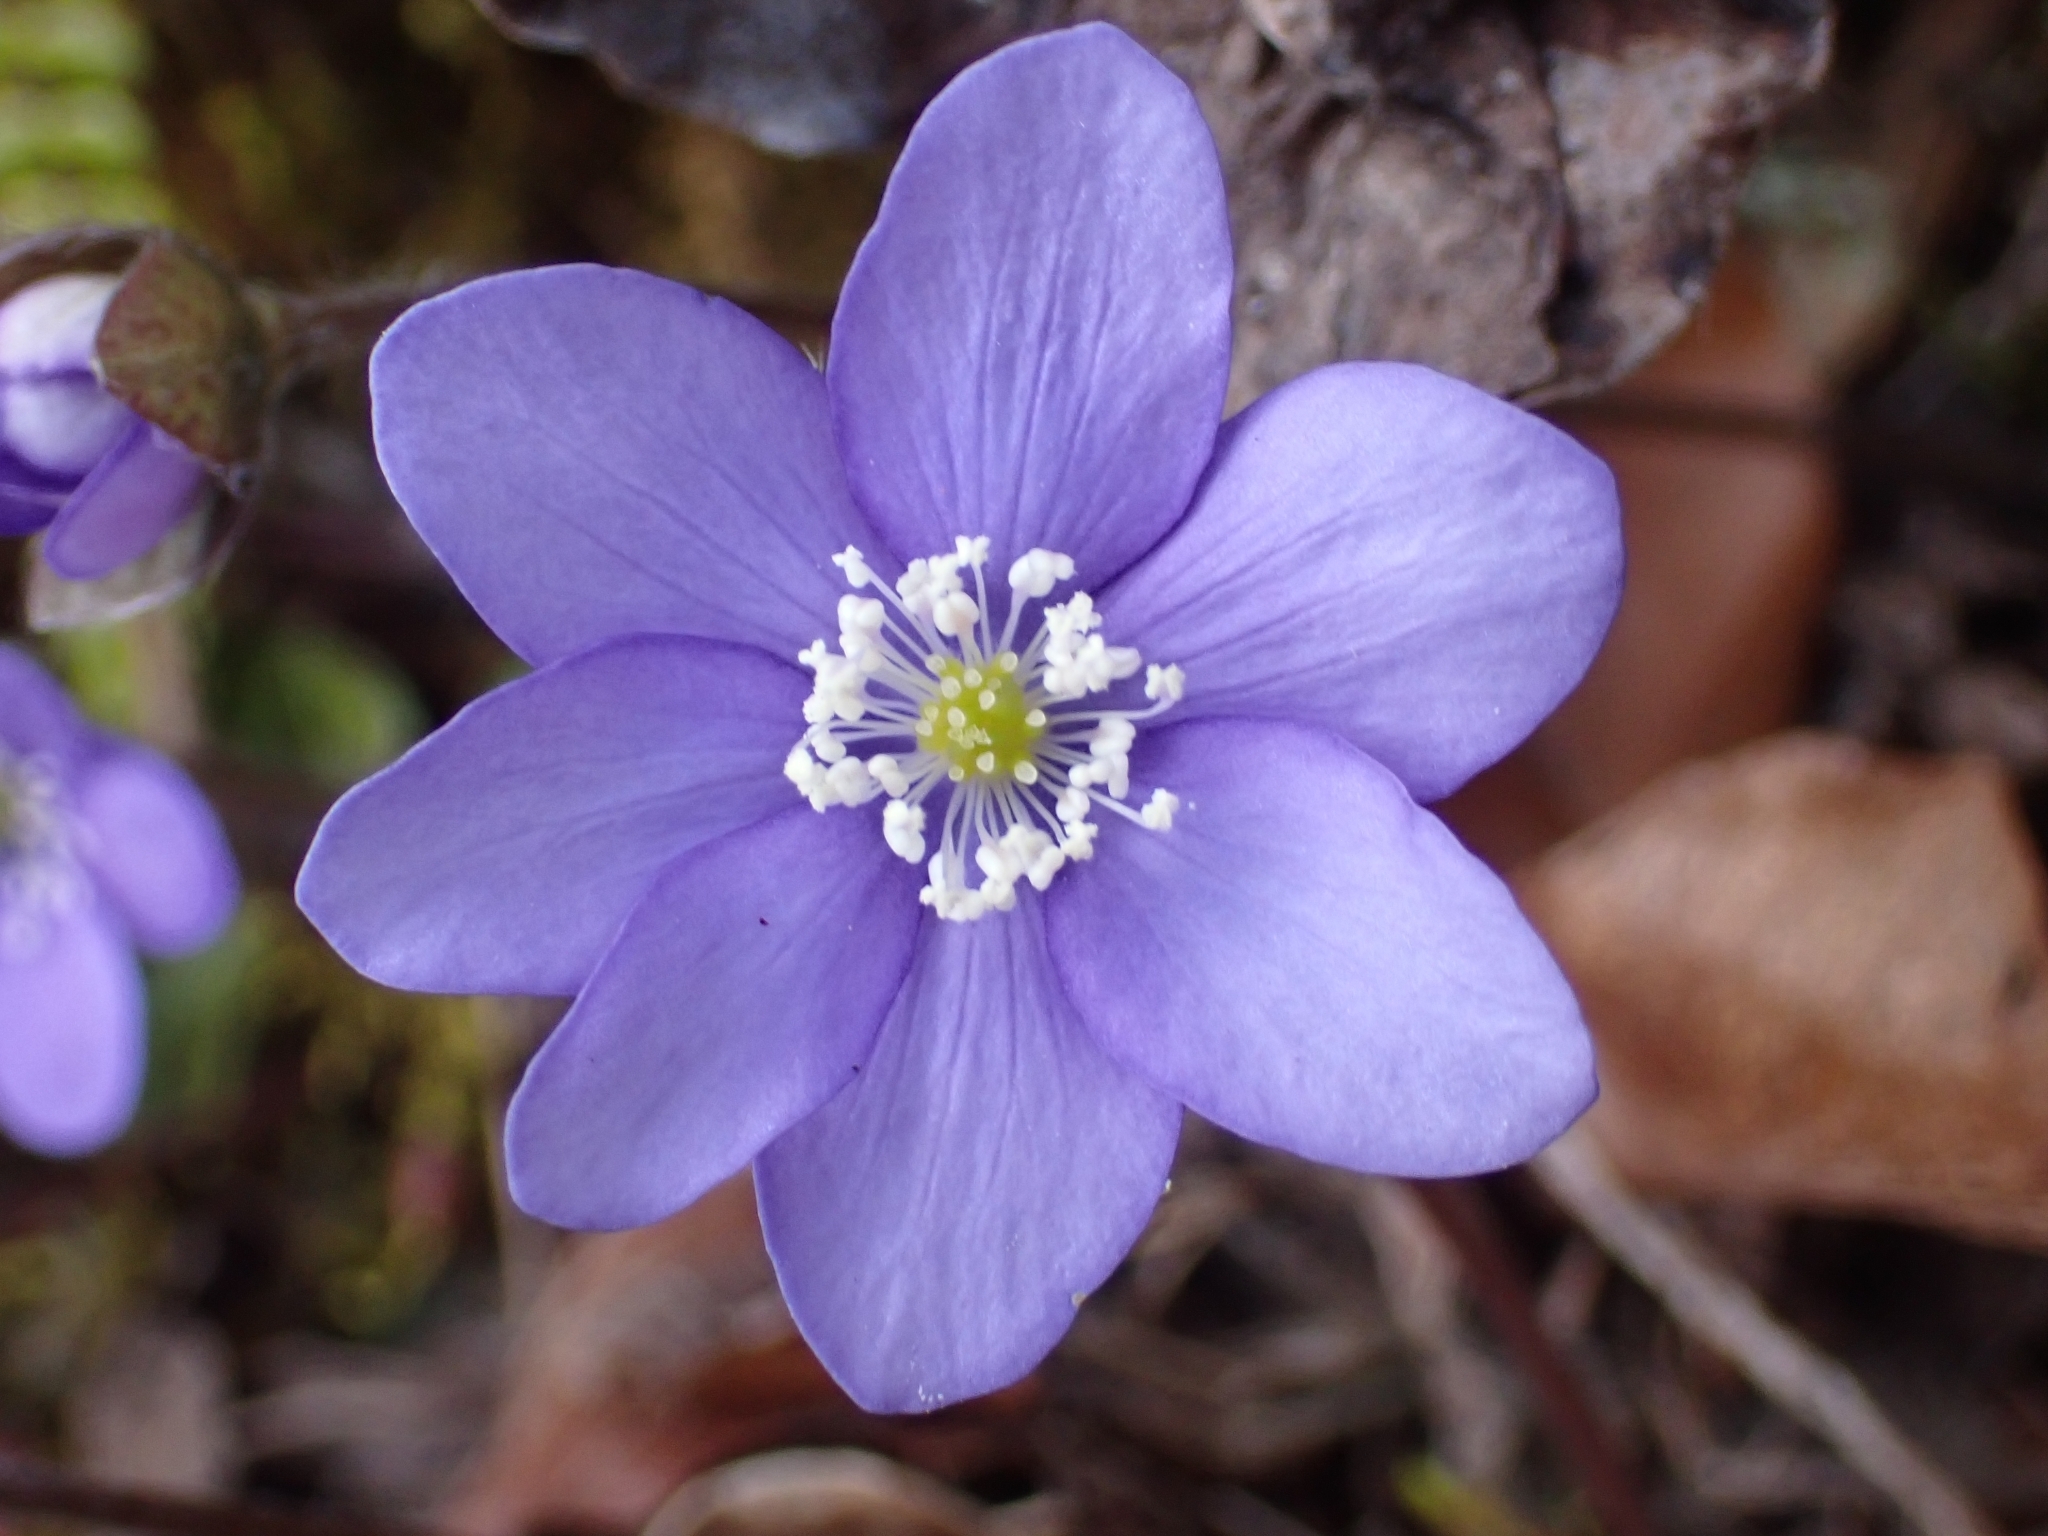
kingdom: Plantae
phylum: Tracheophyta
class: Magnoliopsida
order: Ranunculales
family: Ranunculaceae
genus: Hepatica
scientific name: Hepatica nobilis
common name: Liverleaf
